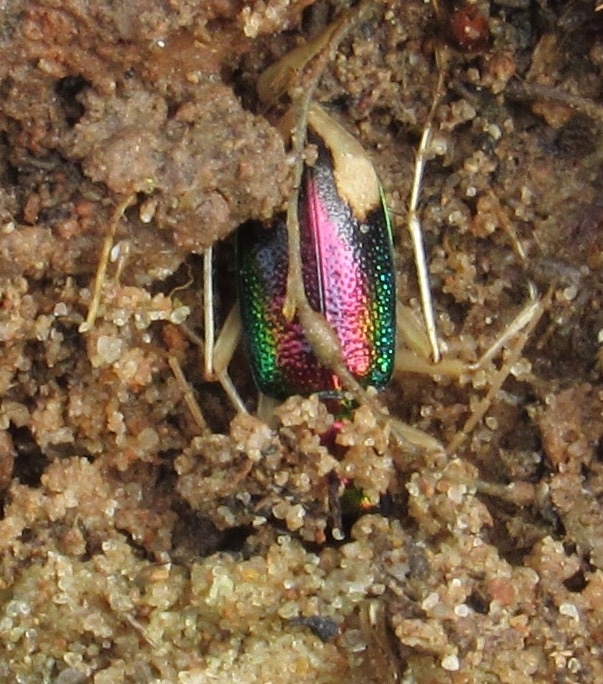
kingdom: Animalia
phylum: Arthropoda
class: Insecta
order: Coleoptera
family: Carabidae
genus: Tetracha
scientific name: Tetracha carolina
